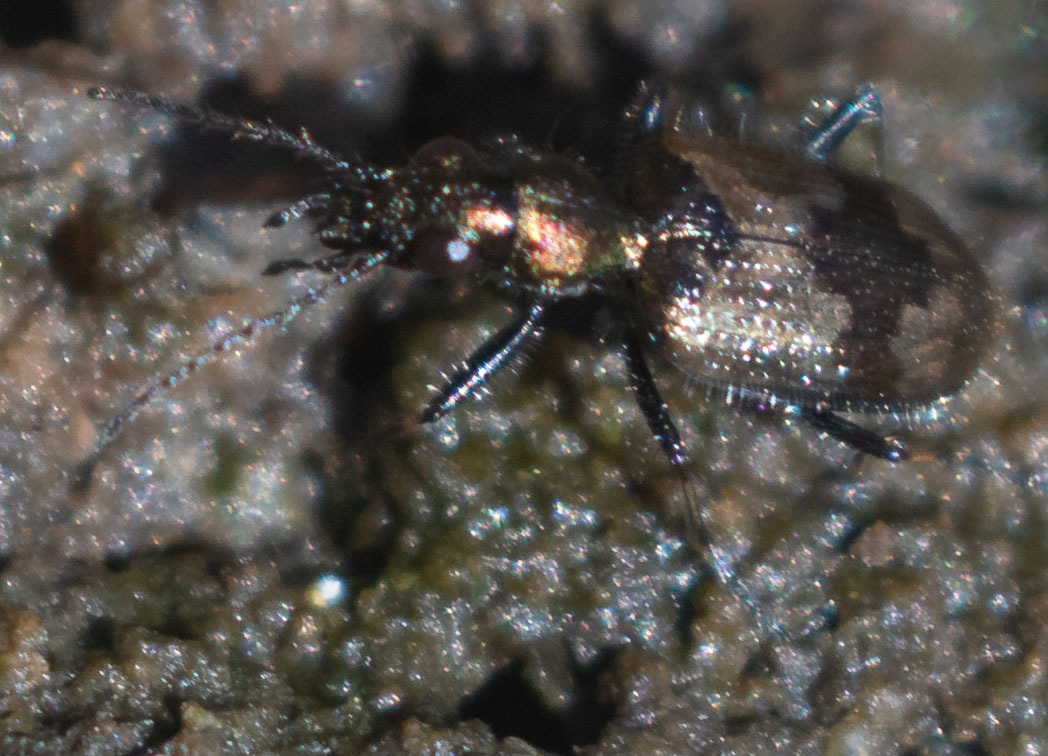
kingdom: Animalia
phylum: Arthropoda
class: Insecta
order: Coleoptera
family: Carabidae
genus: Lachnophorus
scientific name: Lachnophorus elegantulus
